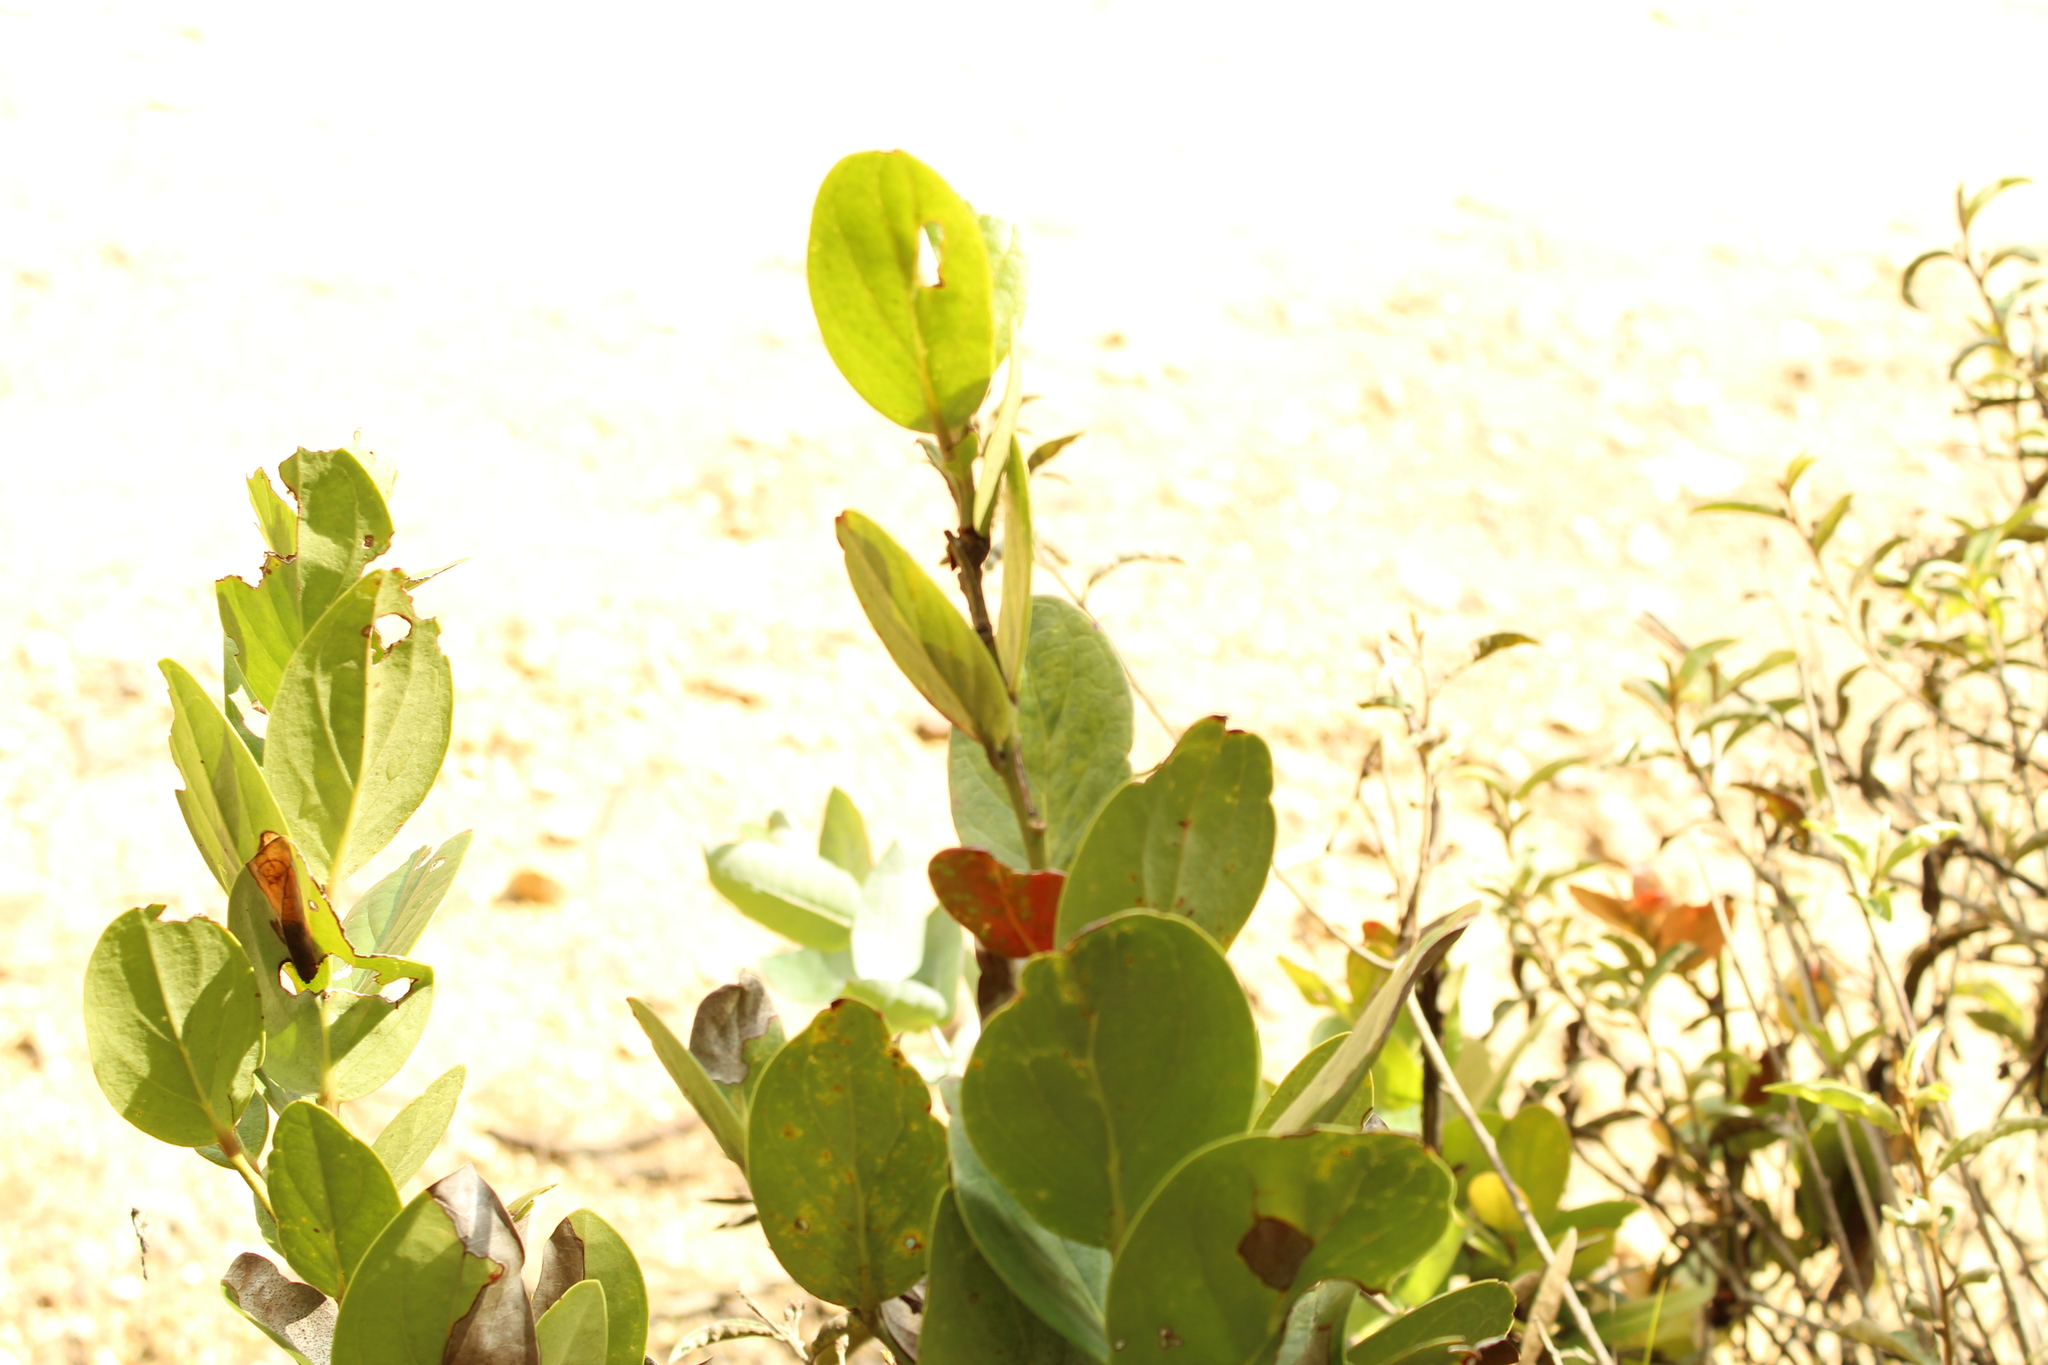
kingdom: Plantae
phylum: Tracheophyta
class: Magnoliopsida
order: Ericales
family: Ericaceae
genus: Macleania
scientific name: Macleania rupestris
